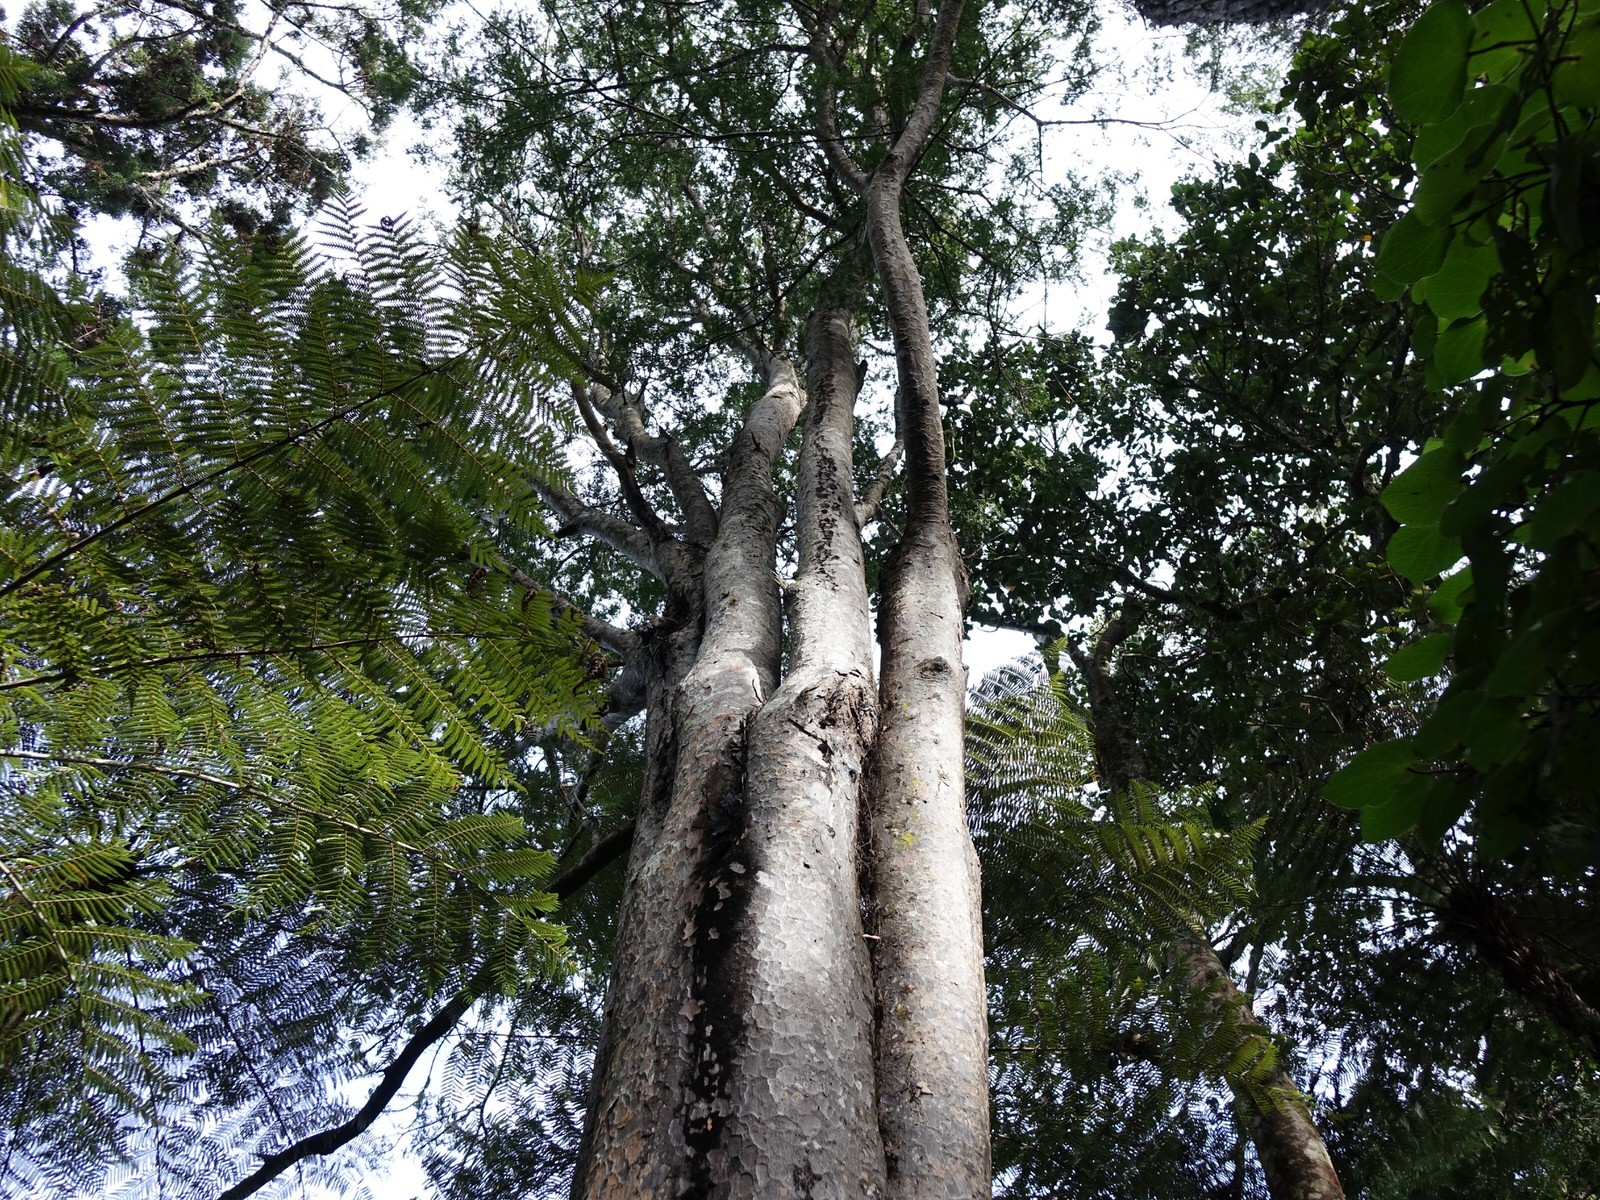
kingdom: Plantae
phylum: Tracheophyta
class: Pinopsida
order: Pinales
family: Podocarpaceae
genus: Prumnopitys
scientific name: Prumnopitys taxifolia
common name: Matai
